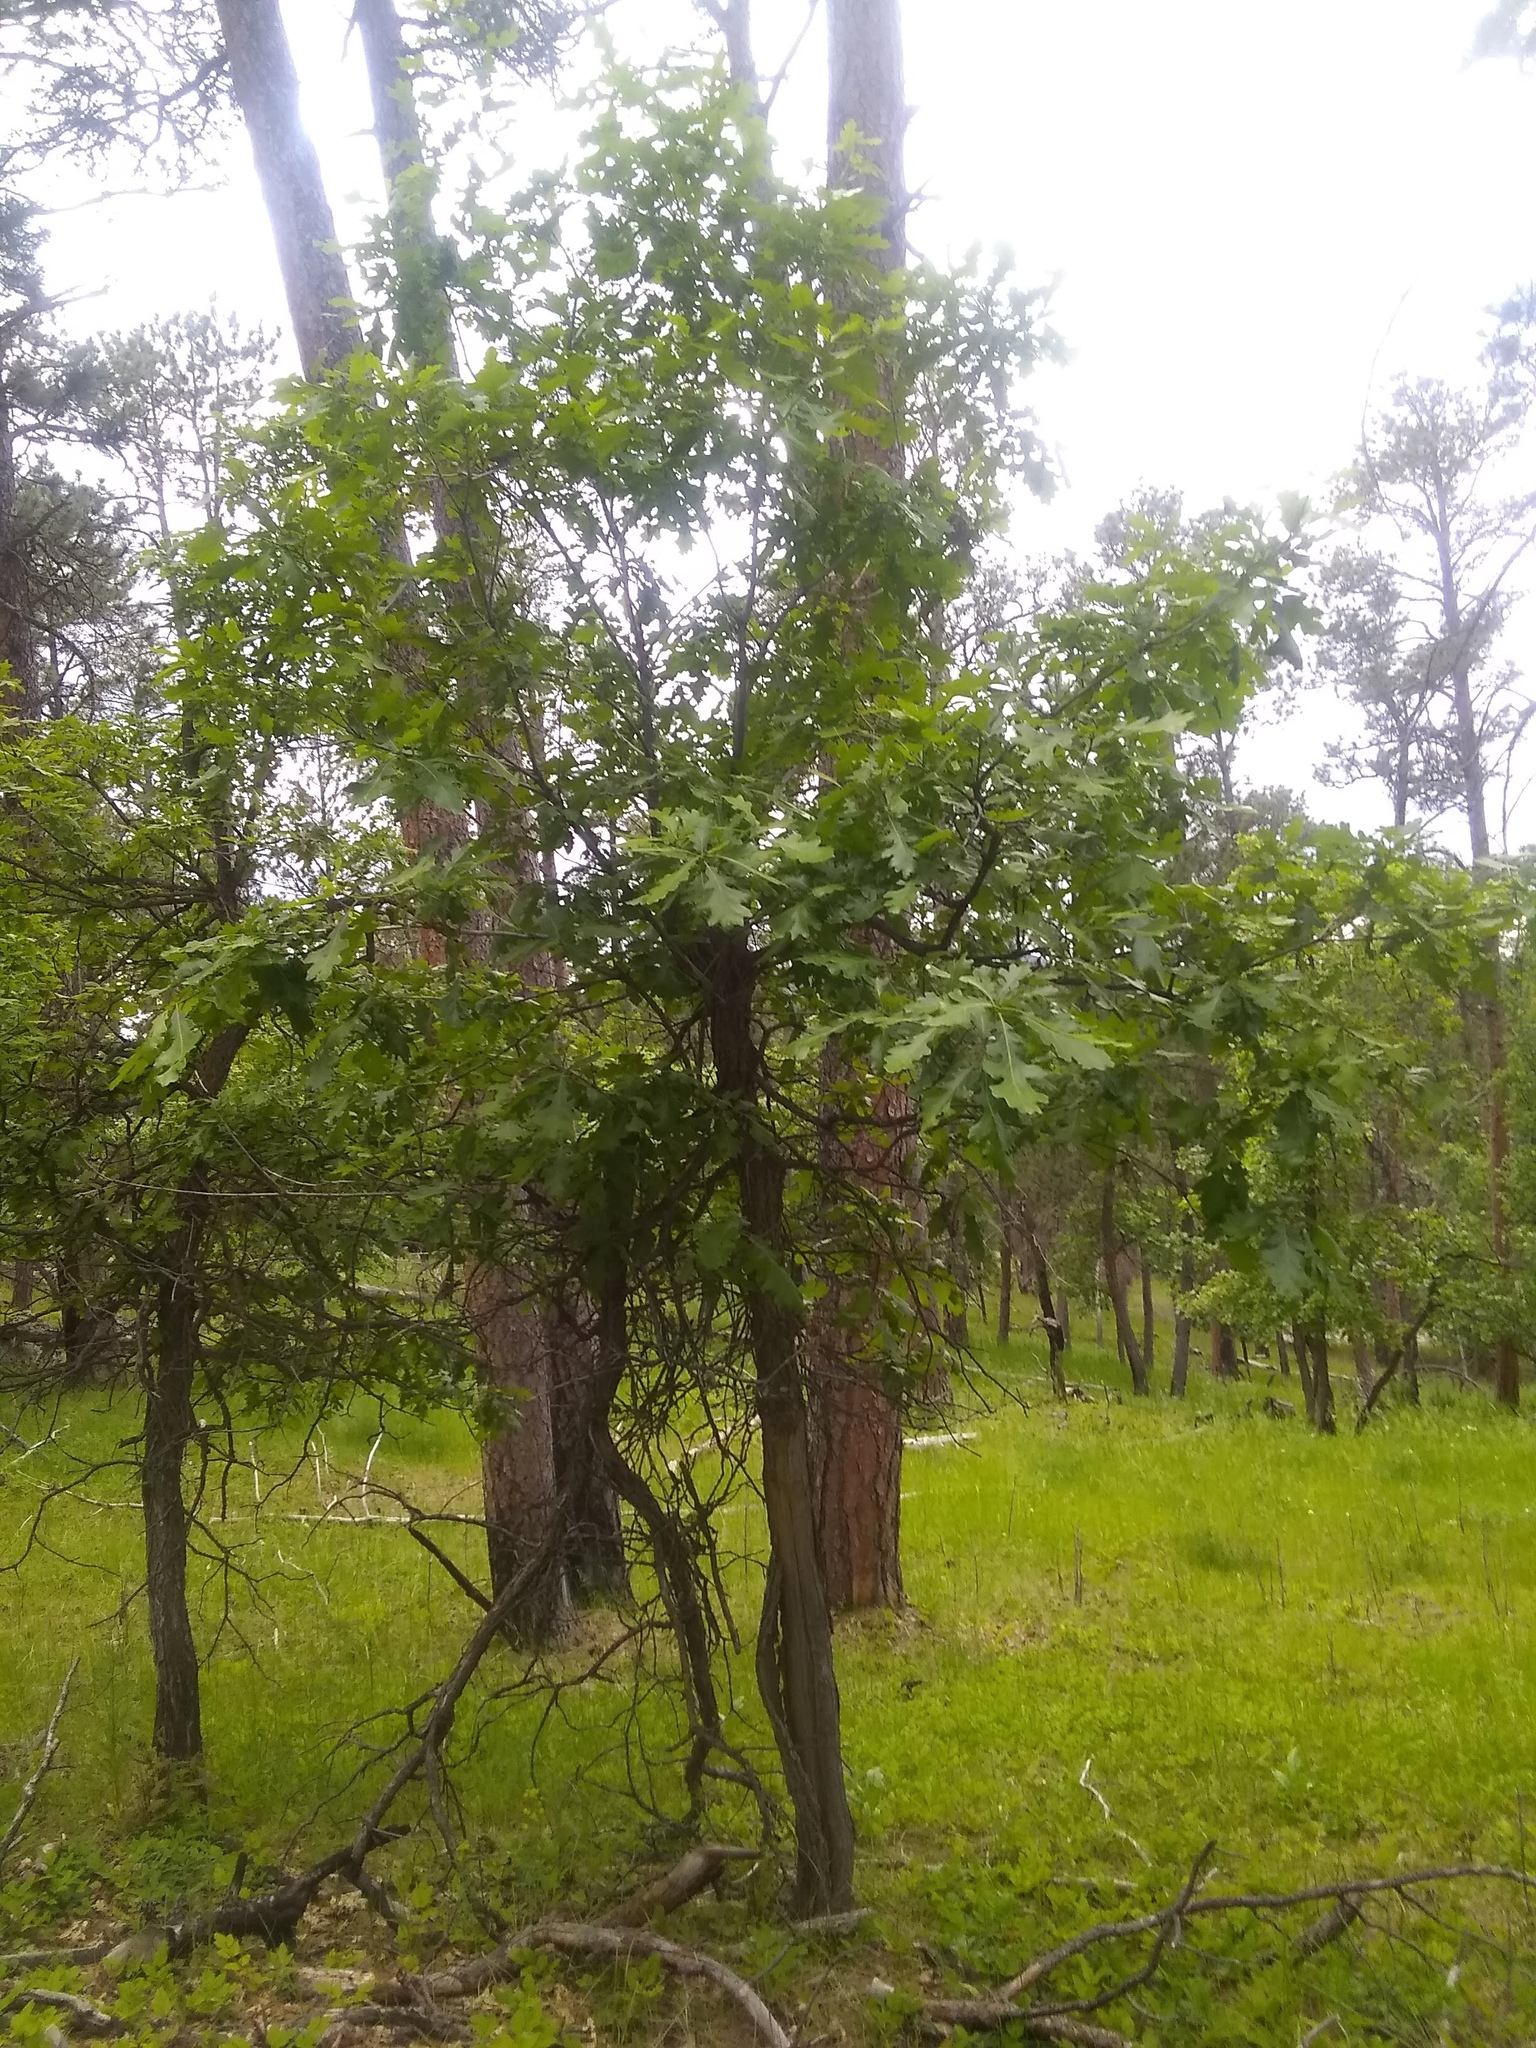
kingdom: Plantae
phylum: Tracheophyta
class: Magnoliopsida
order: Fagales
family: Fagaceae
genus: Quercus
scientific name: Quercus macrocarpa
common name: Bur oak
